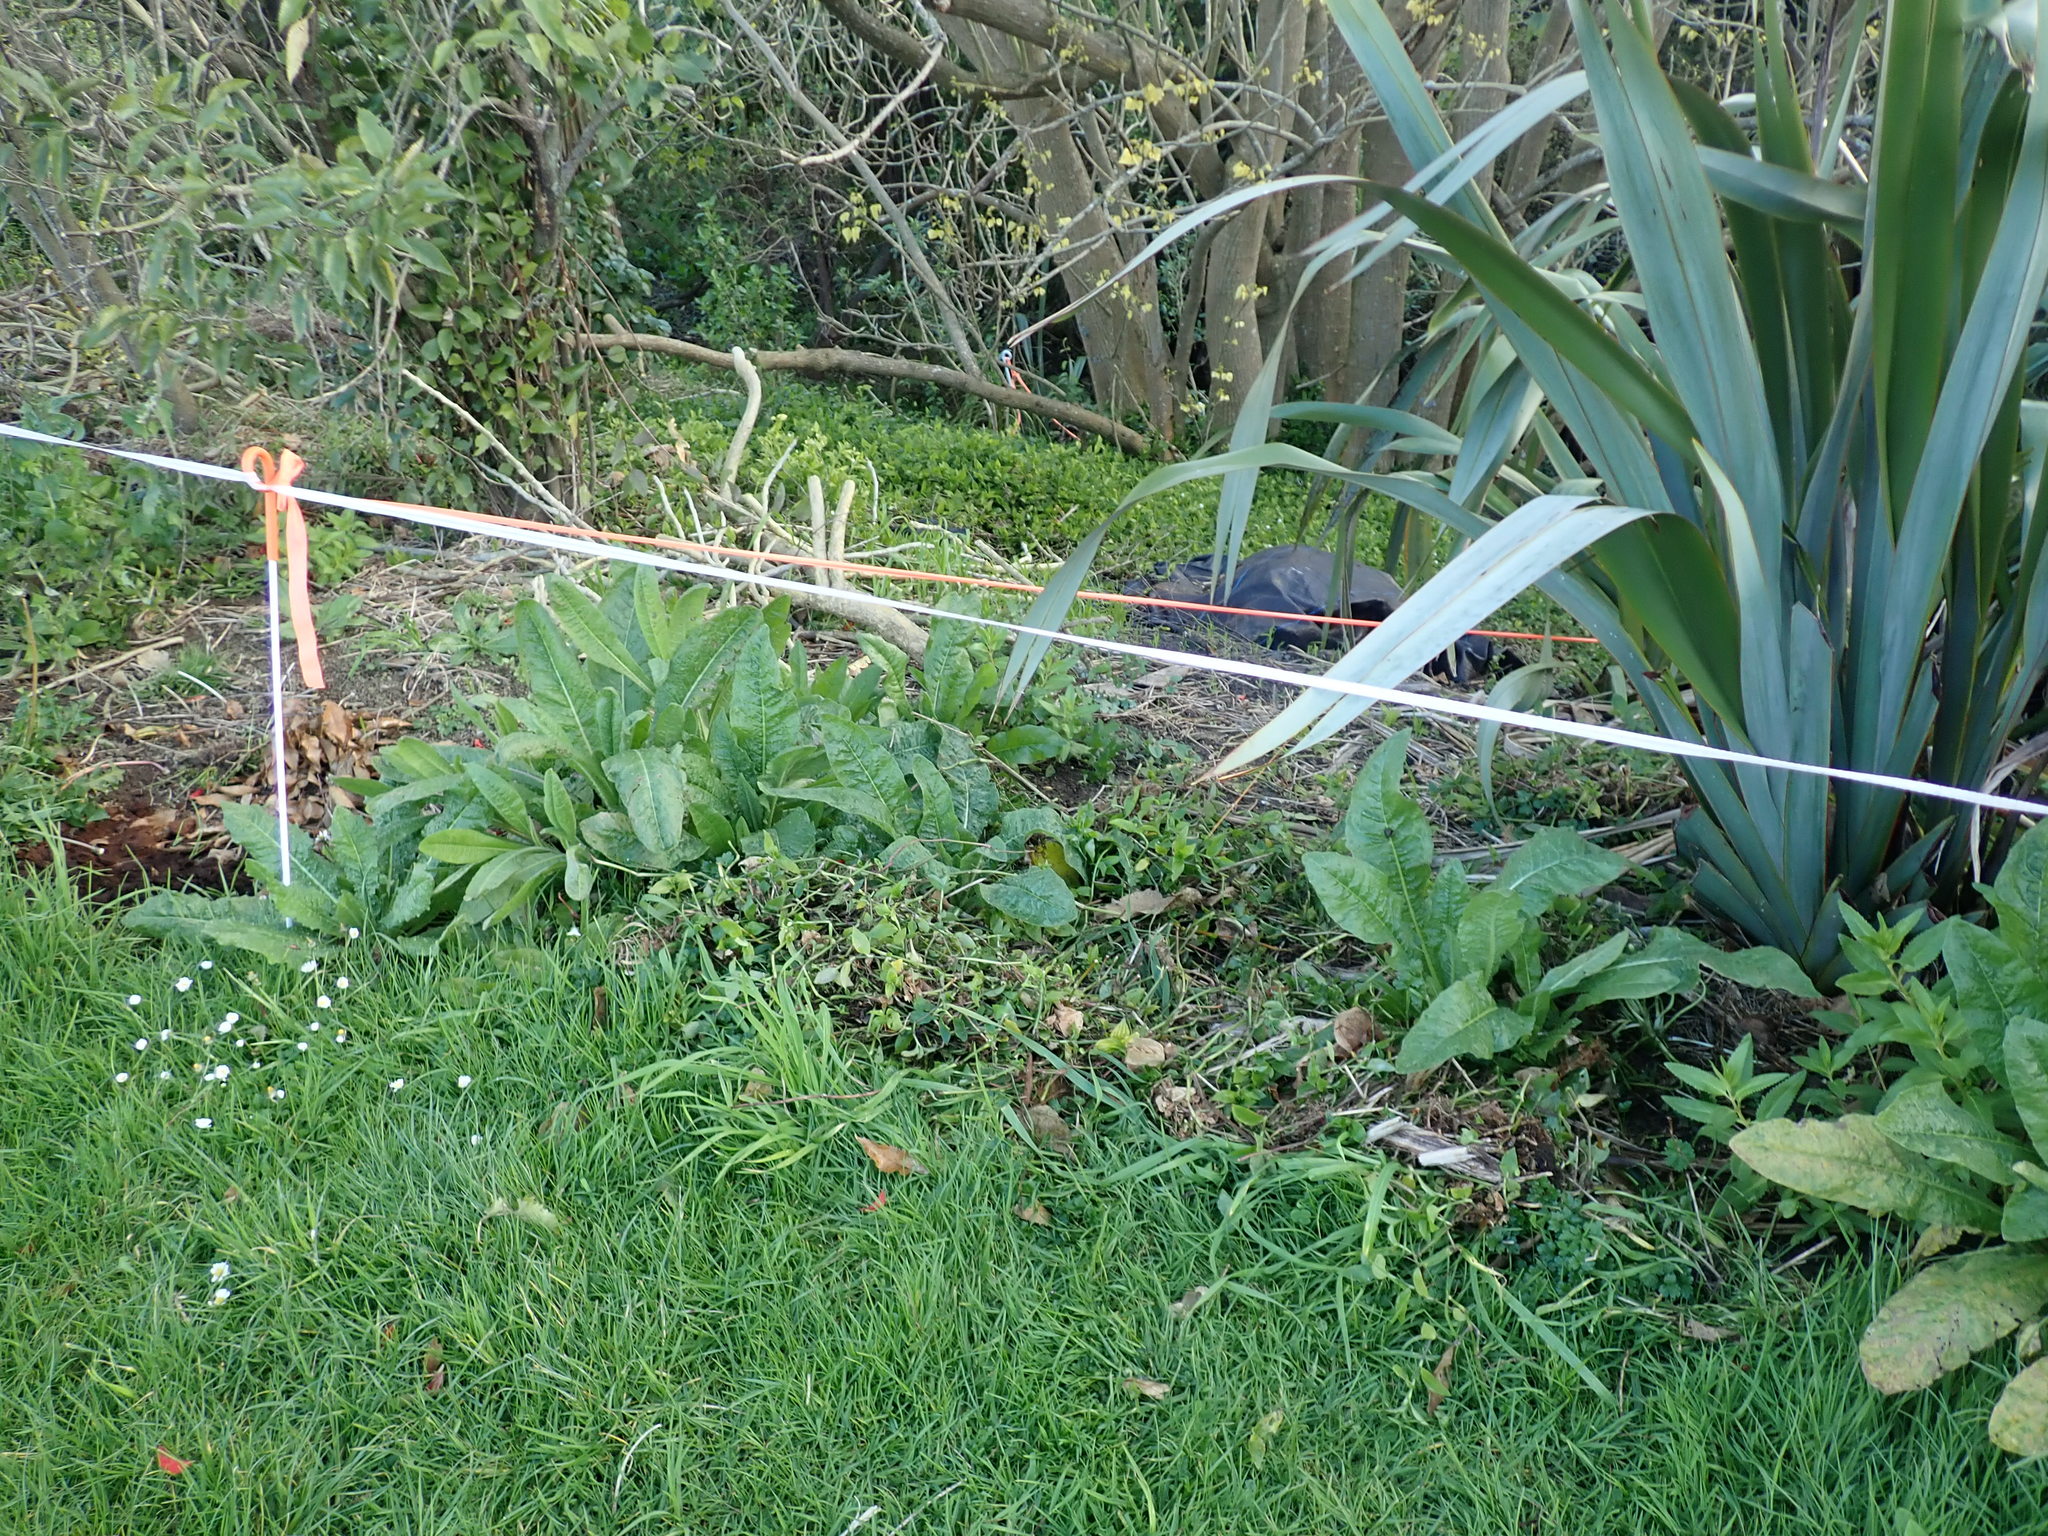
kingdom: Plantae
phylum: Tracheophyta
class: Liliopsida
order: Commelinales
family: Commelinaceae
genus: Tradescantia
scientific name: Tradescantia fluminensis
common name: Wandering-jew
